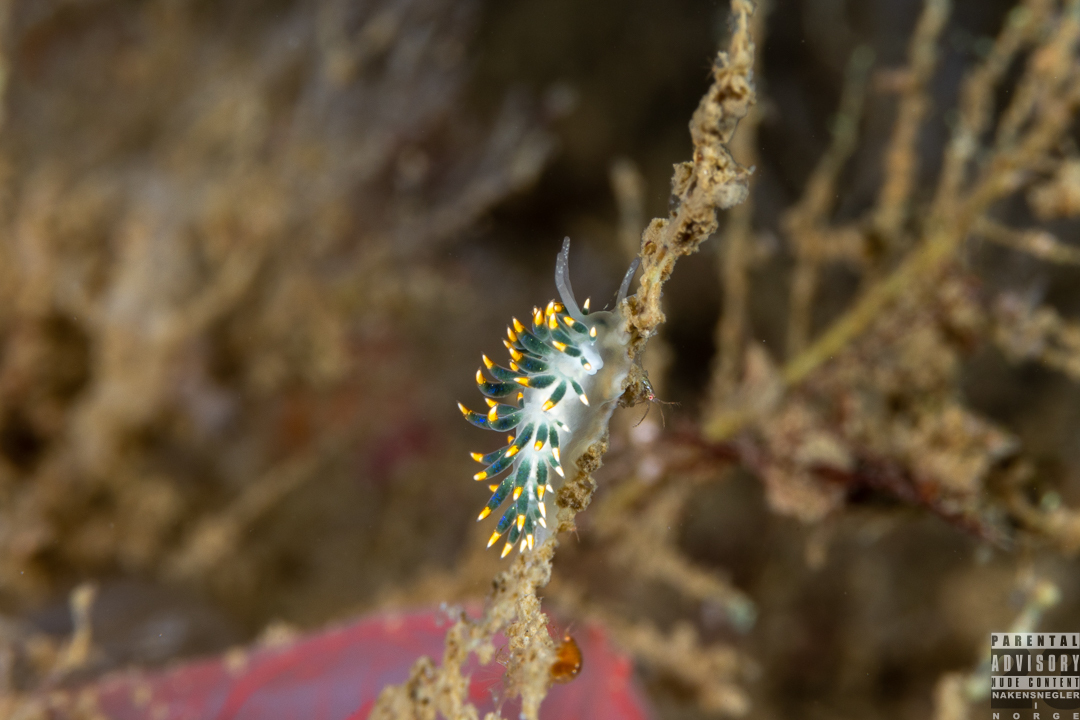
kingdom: Animalia
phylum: Mollusca
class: Gastropoda
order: Nudibranchia
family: Trinchesiidae
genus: Trinchesia
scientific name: Trinchesia cuanensis
